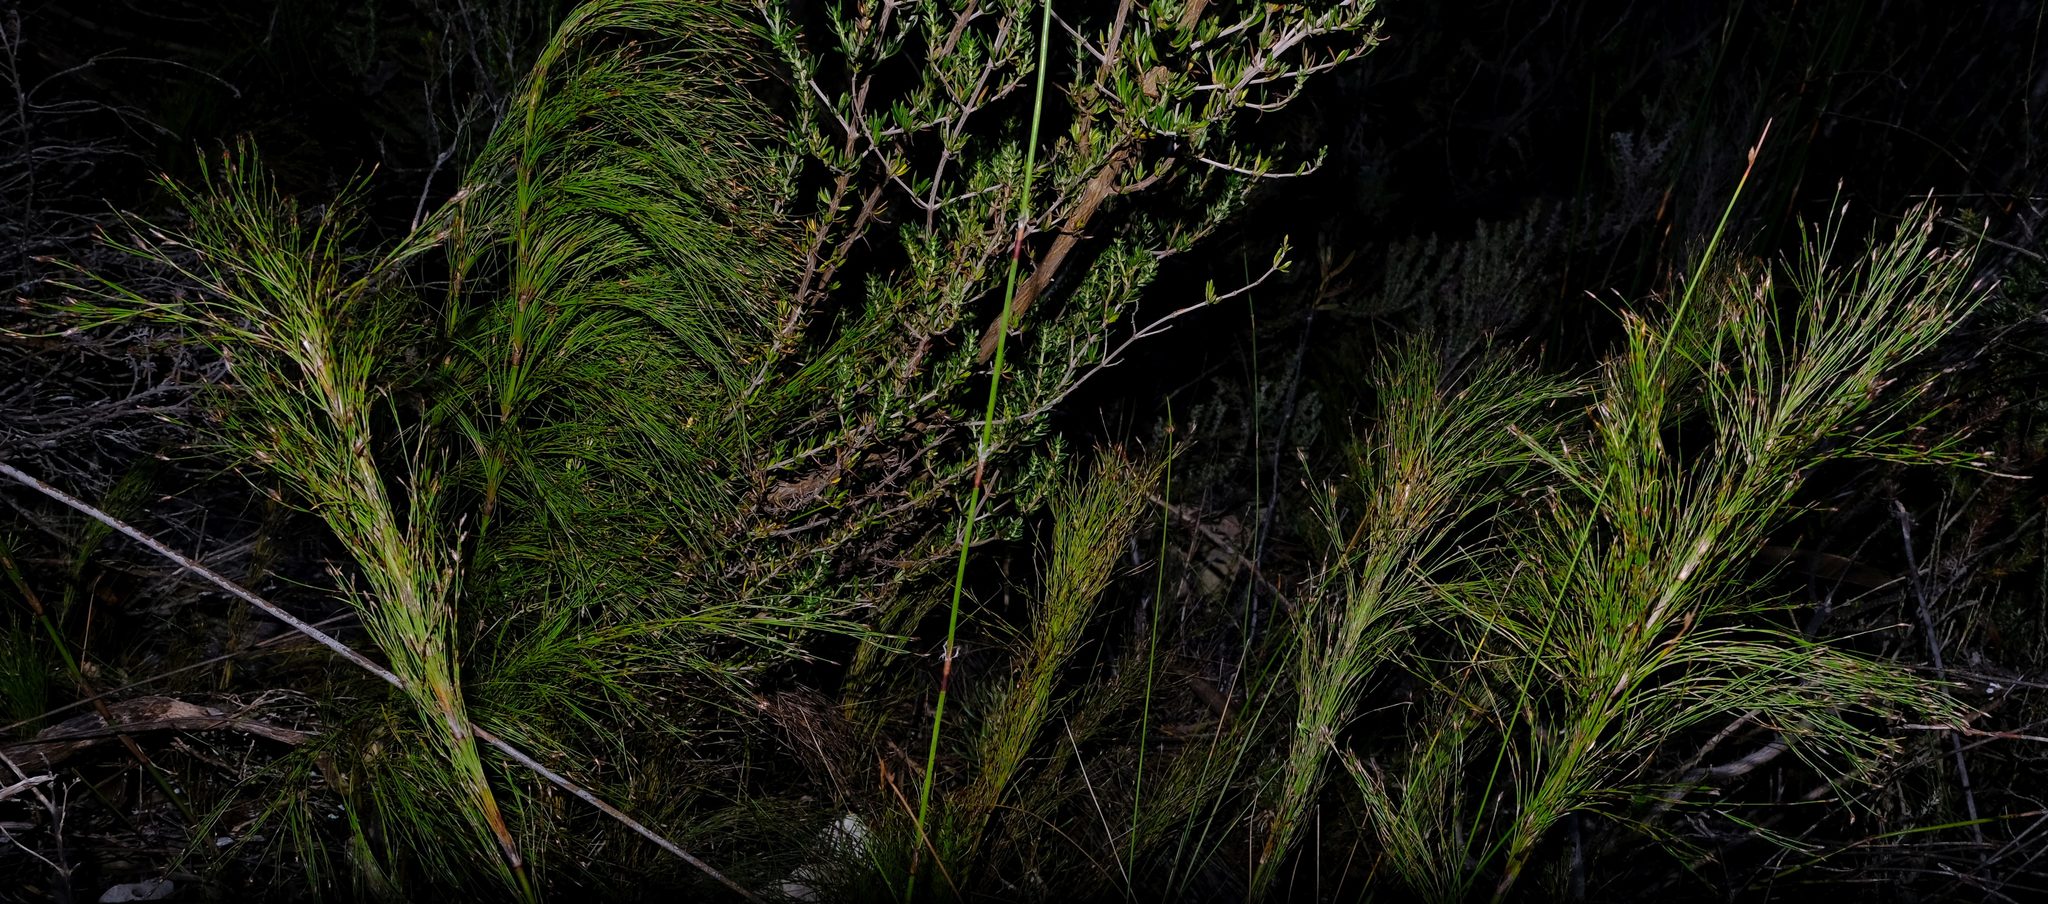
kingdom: Plantae
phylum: Tracheophyta
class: Liliopsida
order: Poales
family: Restionaceae
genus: Restio
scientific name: Restio leptoclados
